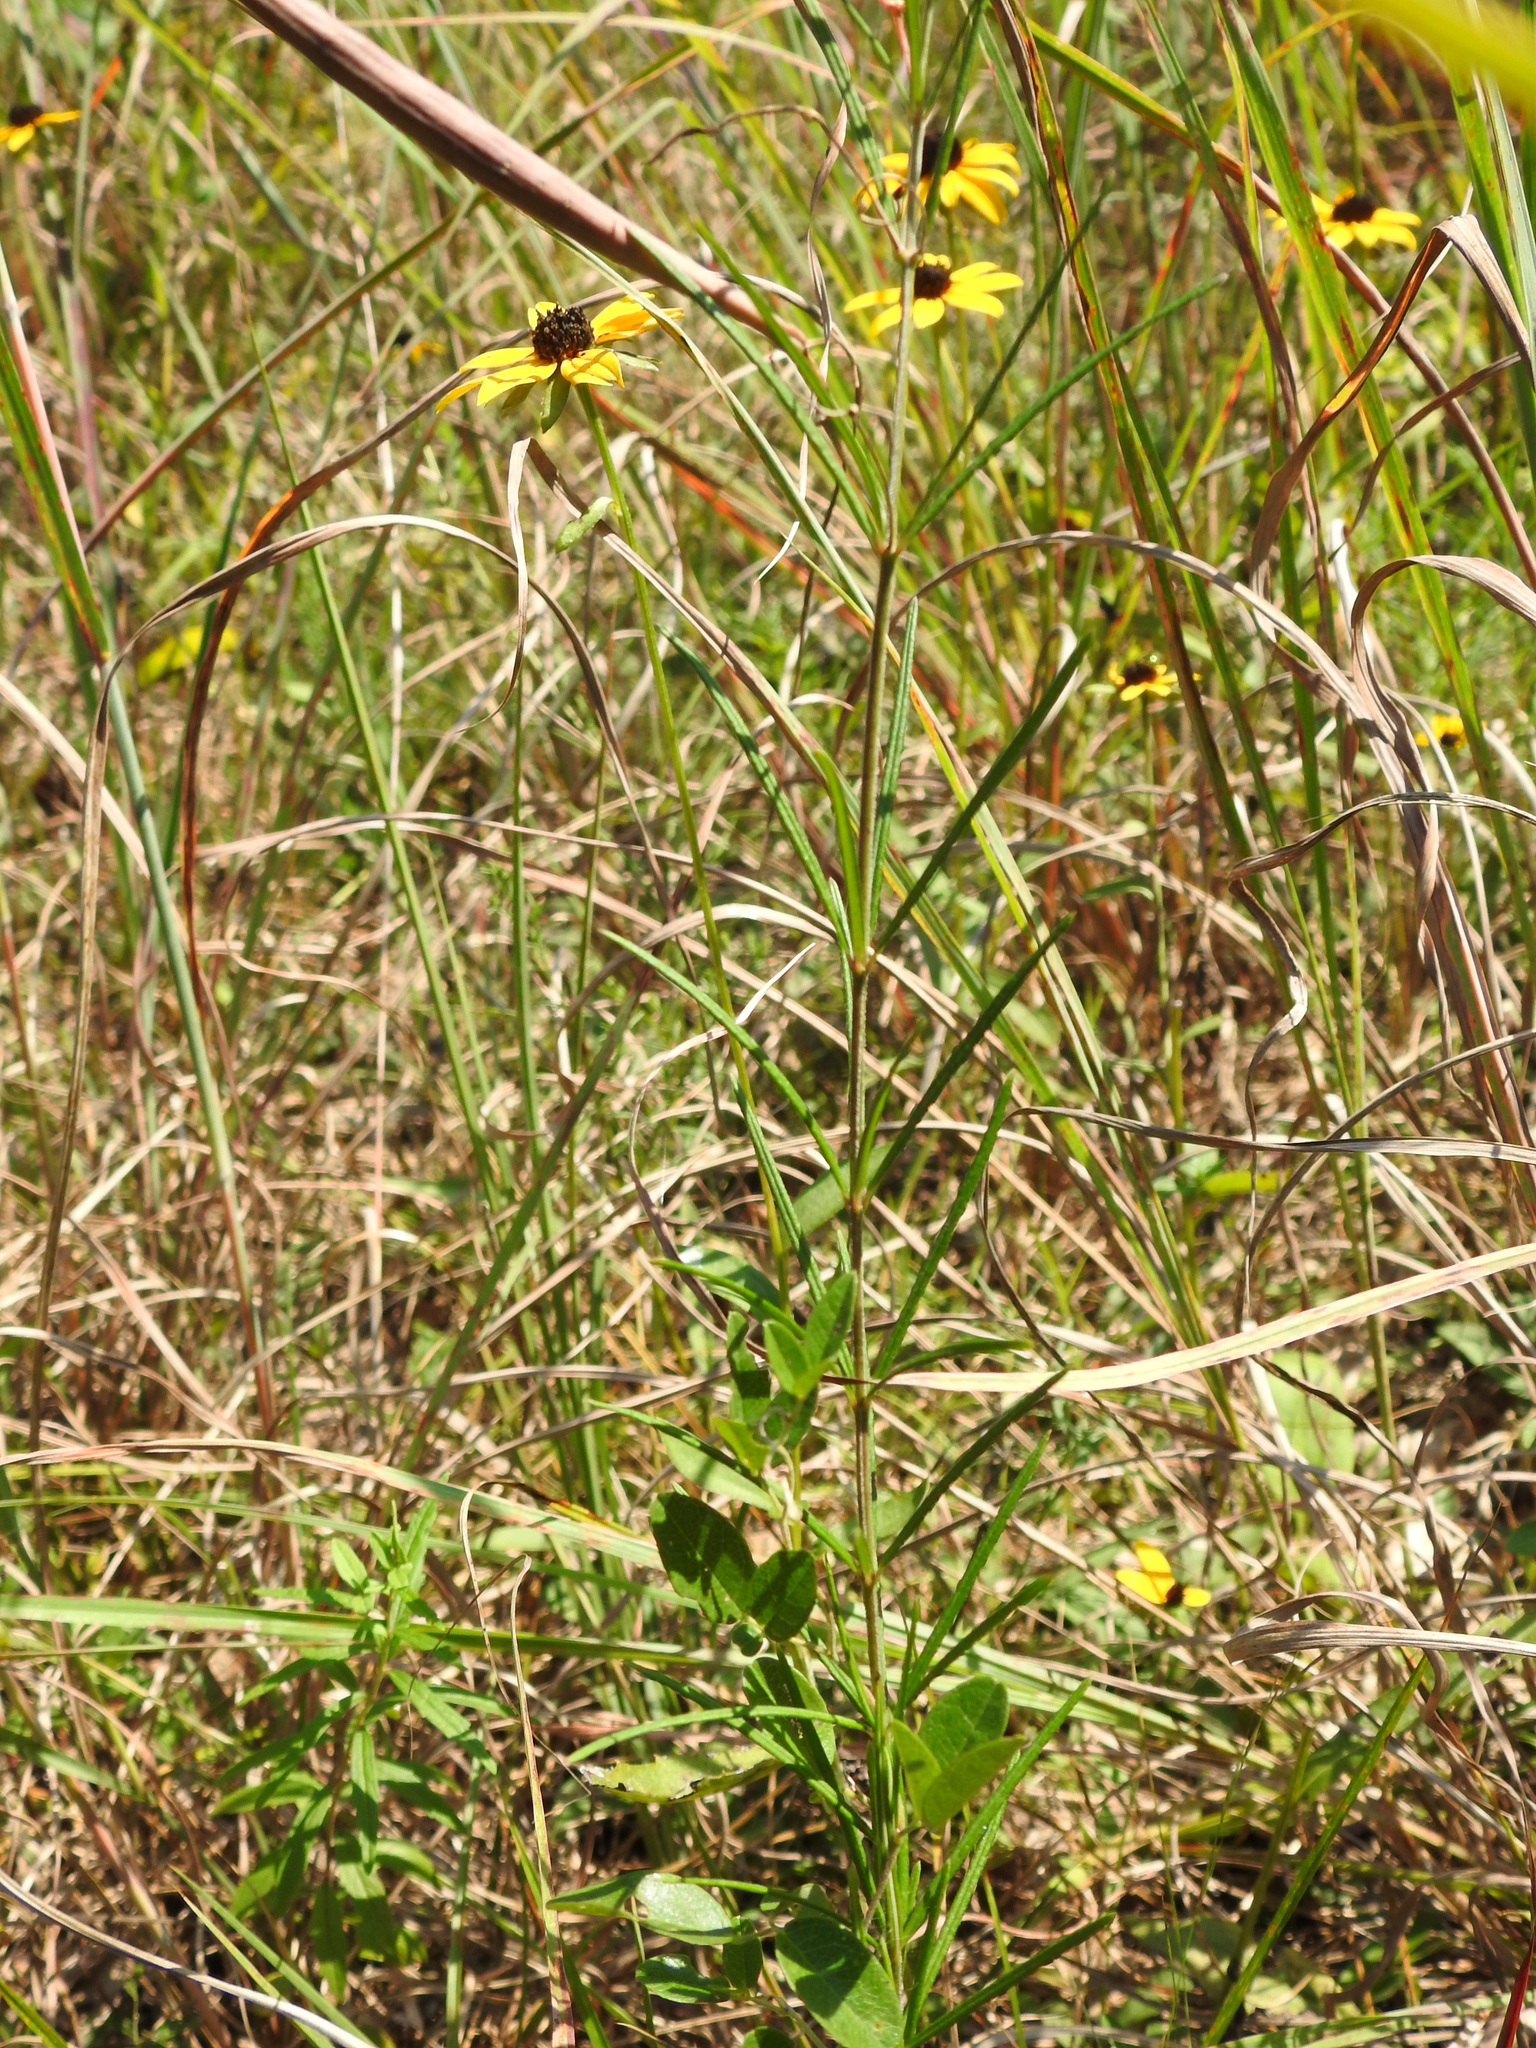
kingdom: Plantae
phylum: Tracheophyta
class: Magnoliopsida
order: Gentianales
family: Apocynaceae
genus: Asclepias
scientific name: Asclepias verticillata
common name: Eastern whorled milkweed
